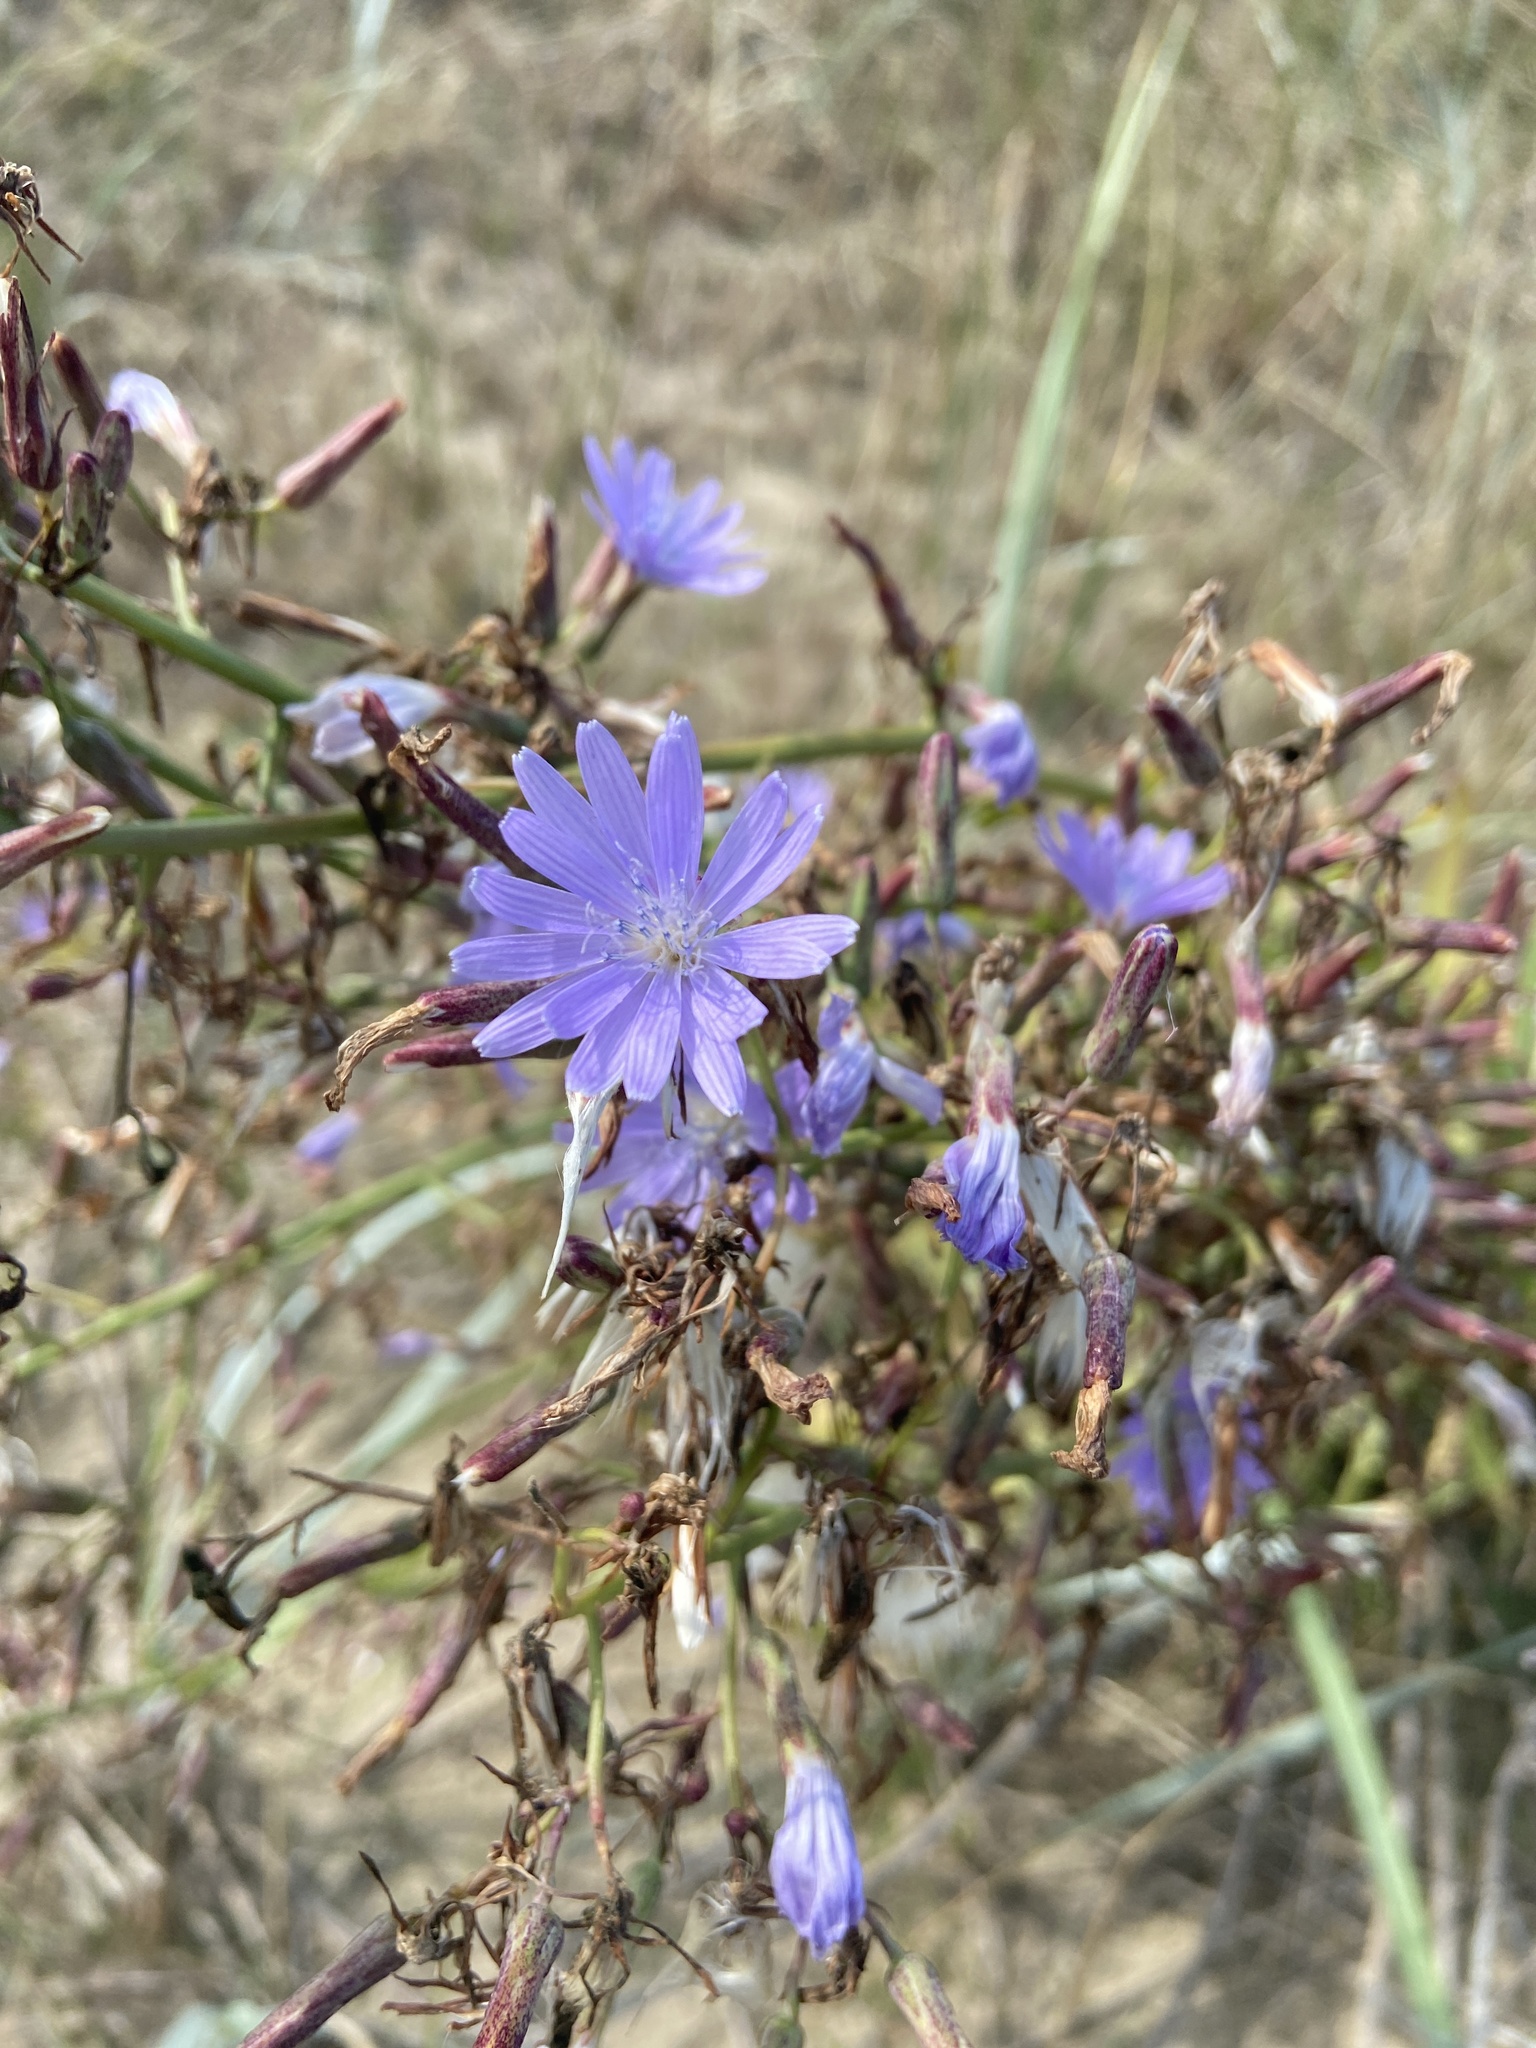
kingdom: Plantae
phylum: Tracheophyta
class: Magnoliopsida
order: Asterales
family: Asteraceae
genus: Lactuca
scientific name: Lactuca tatarica
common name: Blue lettuce
